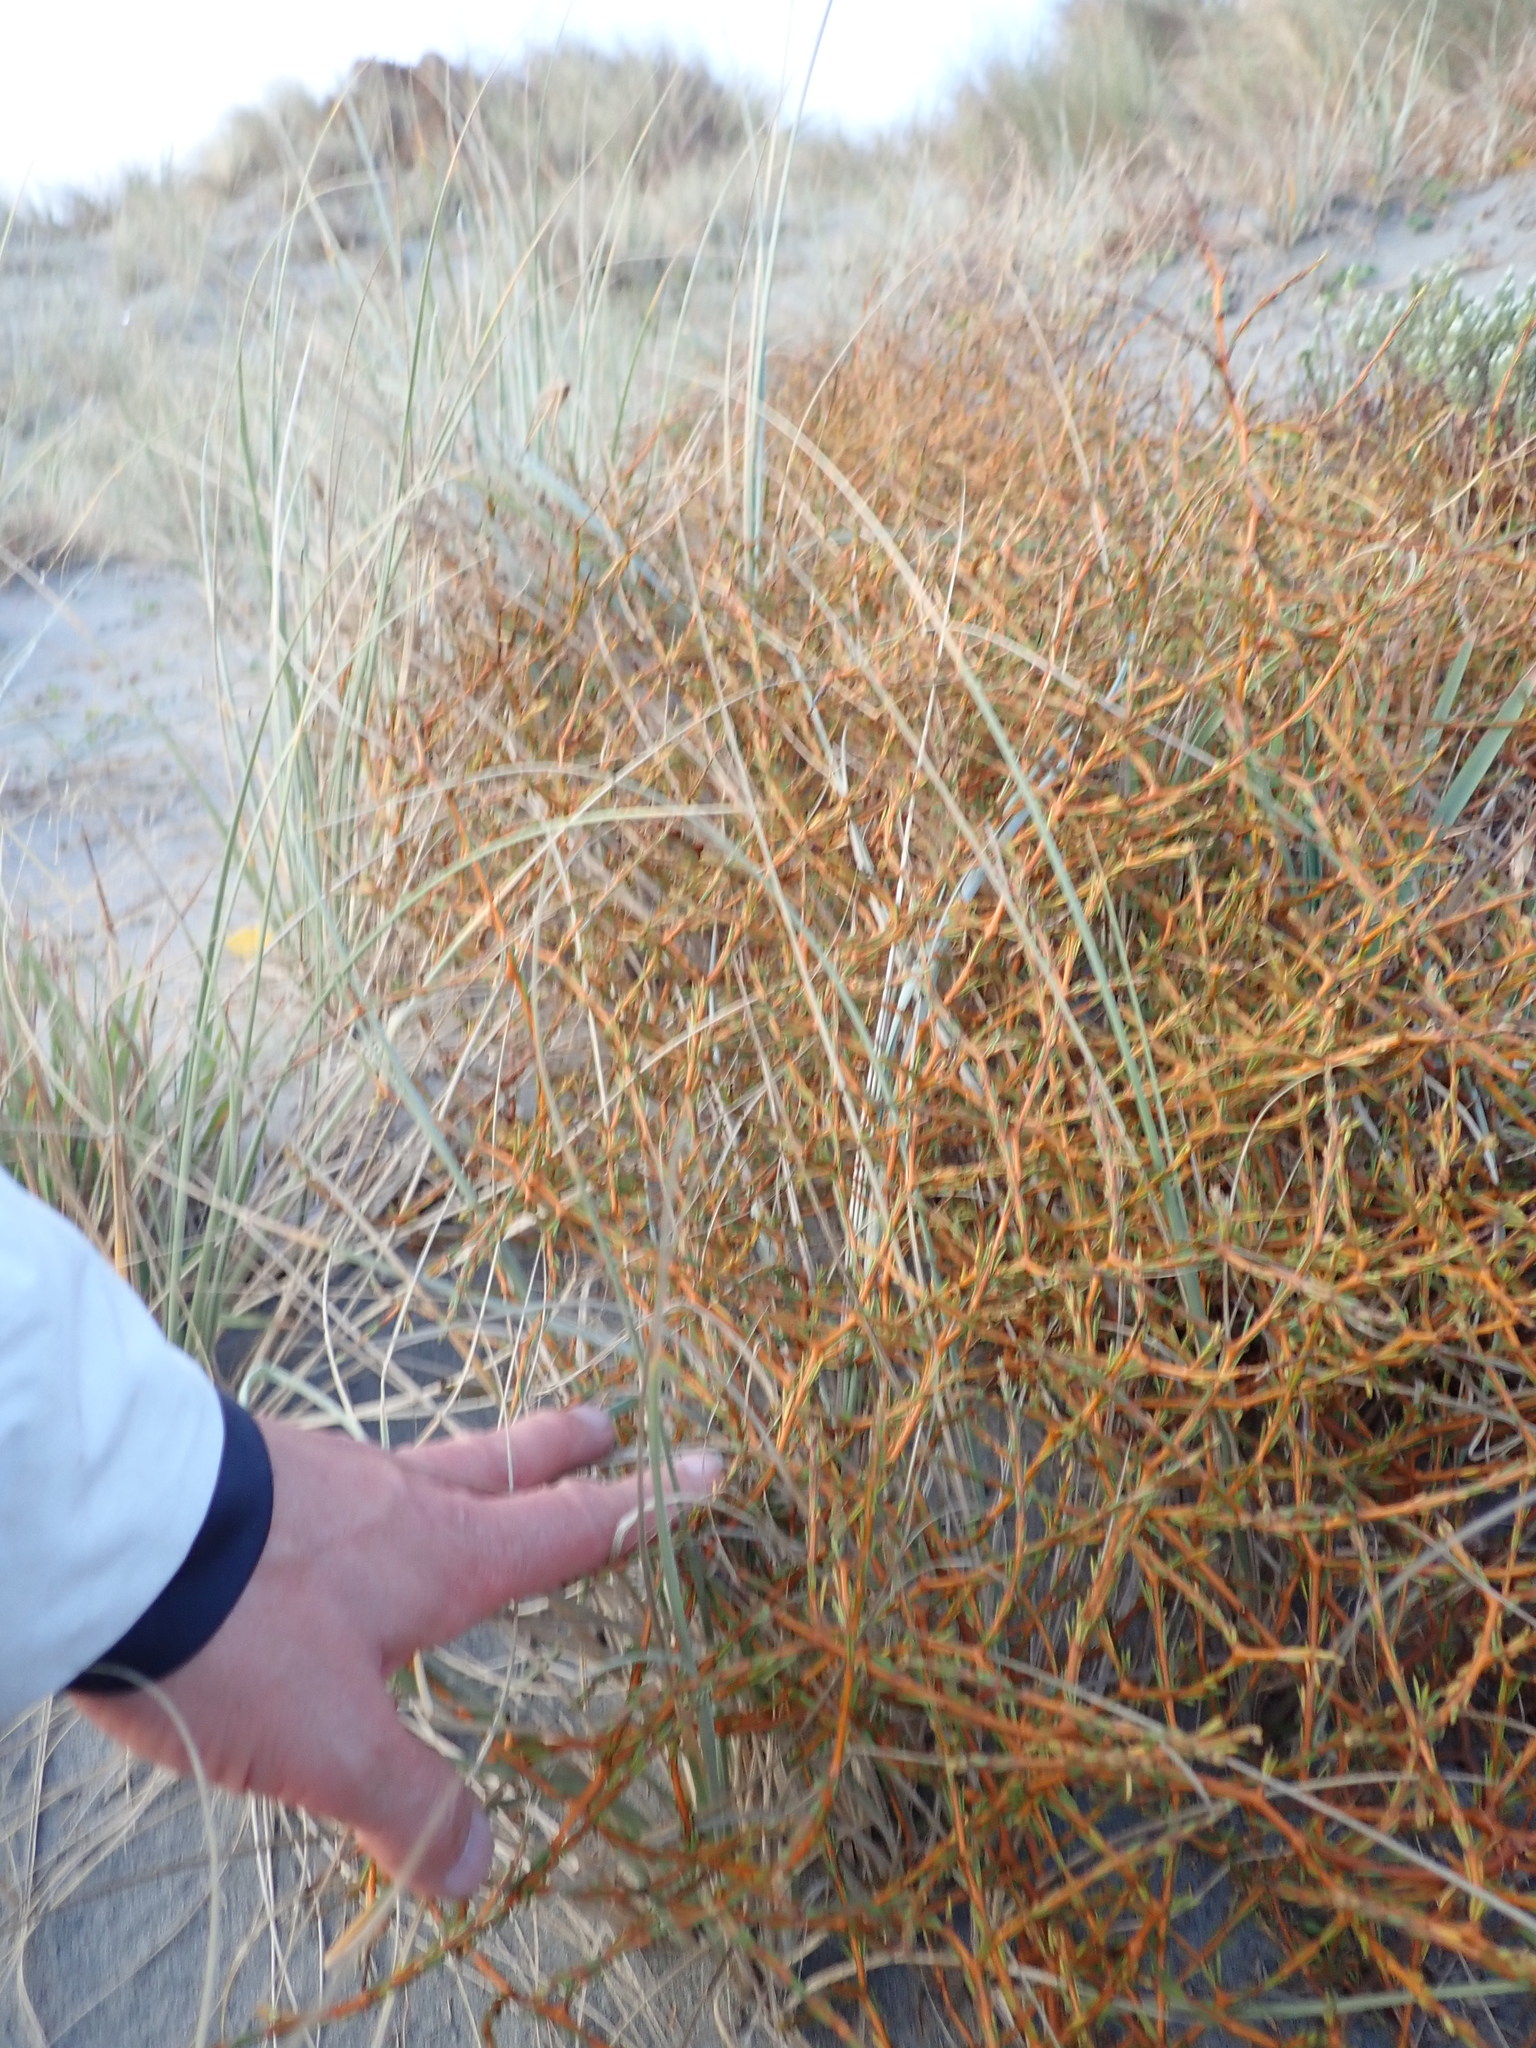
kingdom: Plantae
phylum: Tracheophyta
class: Magnoliopsida
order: Gentianales
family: Rubiaceae
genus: Coprosma
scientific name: Coprosma acerosa
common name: Sand coprosma
